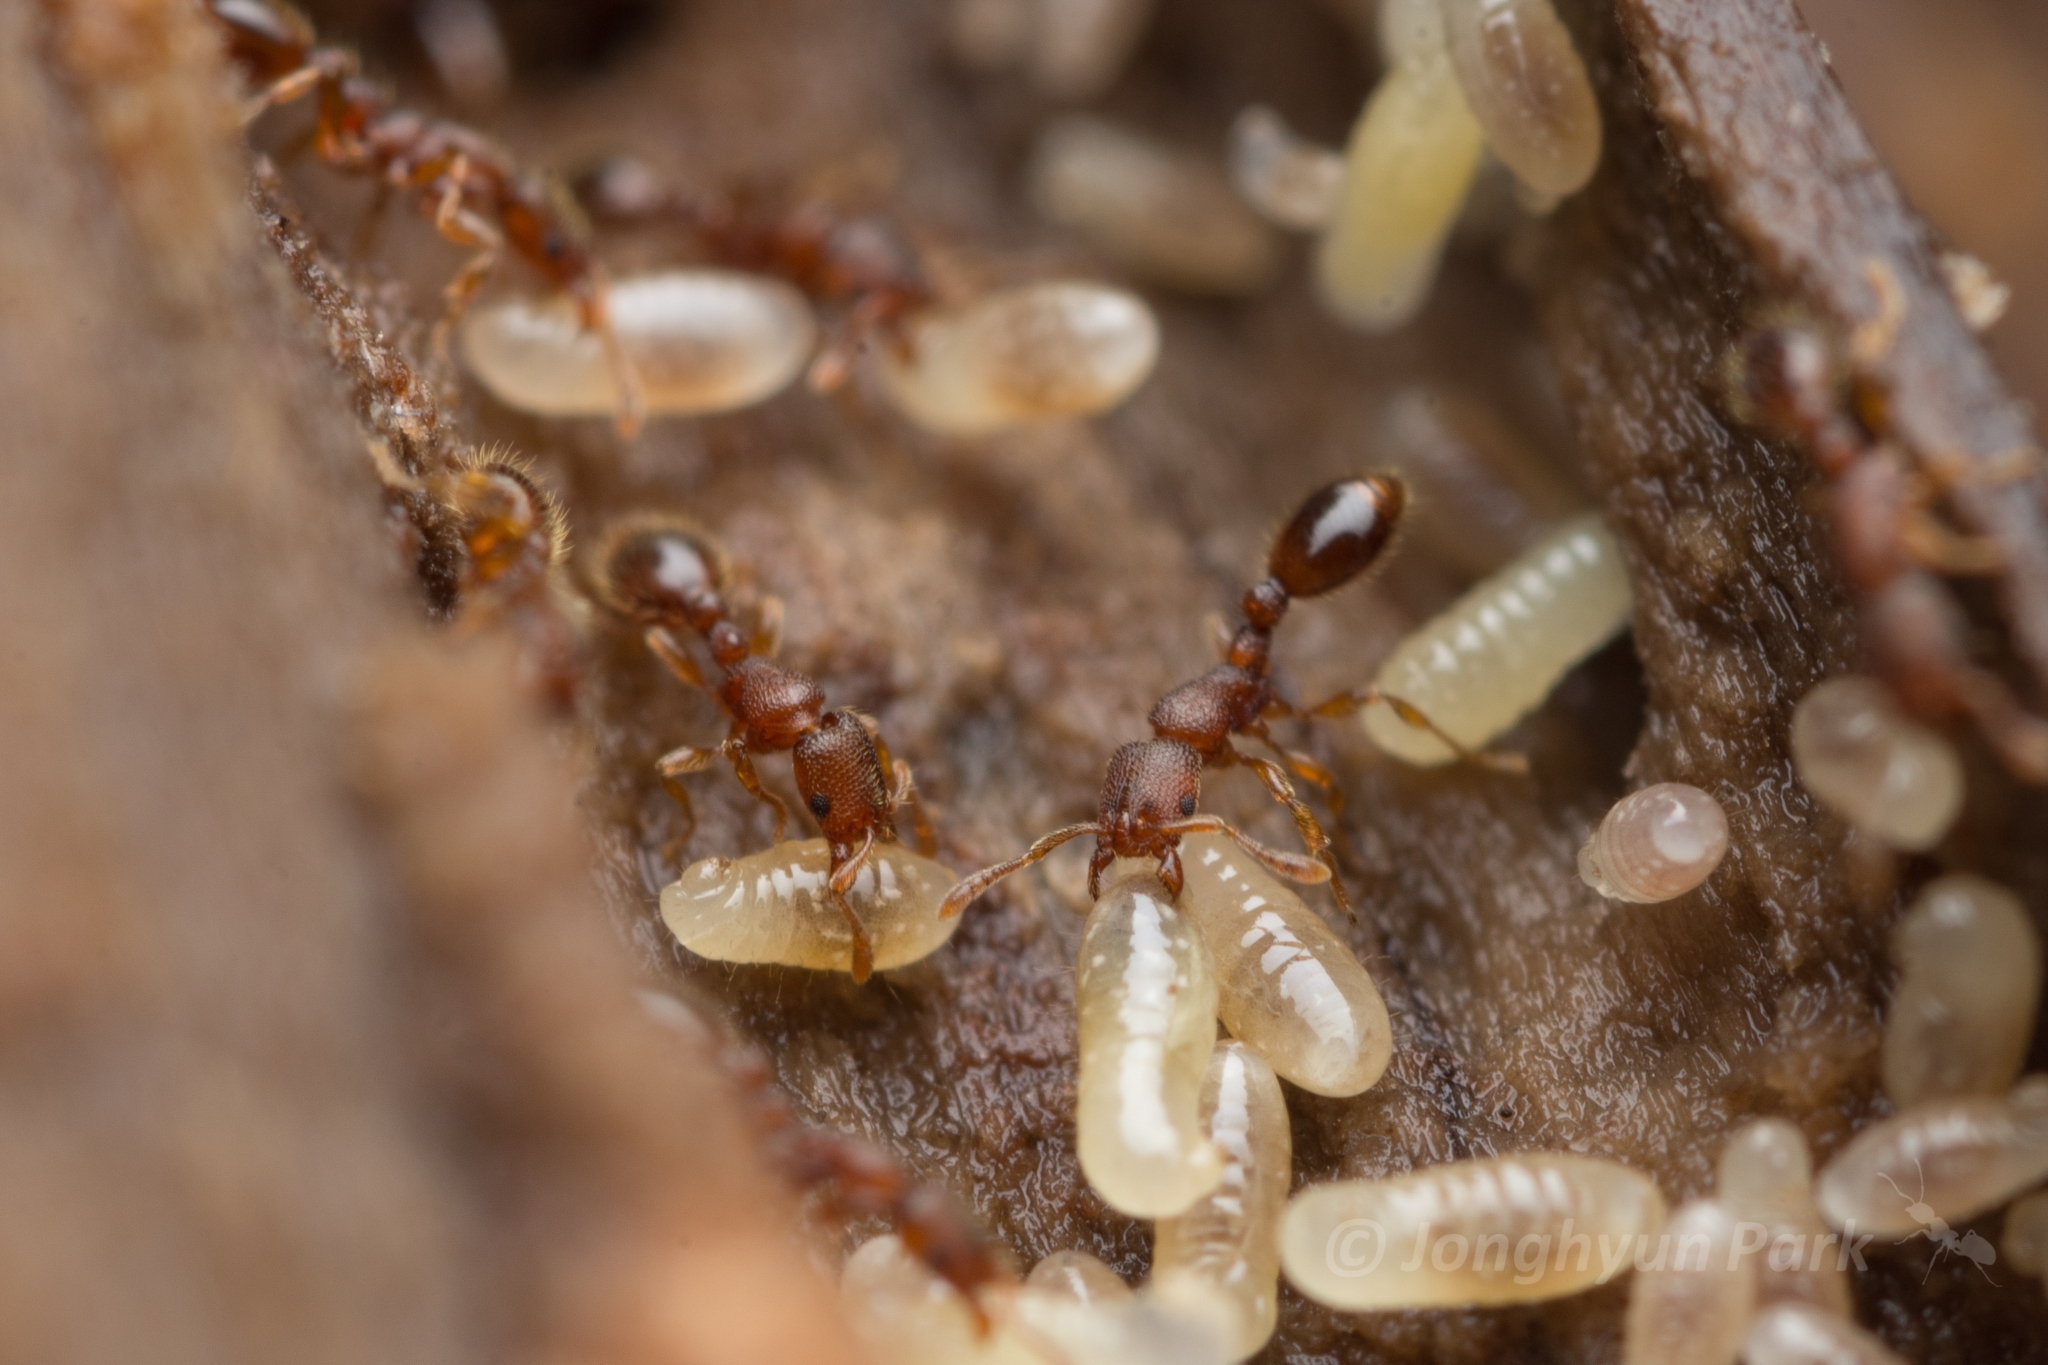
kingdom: Animalia
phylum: Arthropoda
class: Insecta
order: Hymenoptera
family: Formicidae
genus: Vollenhovia
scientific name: Vollenhovia emeryi
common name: Ant
